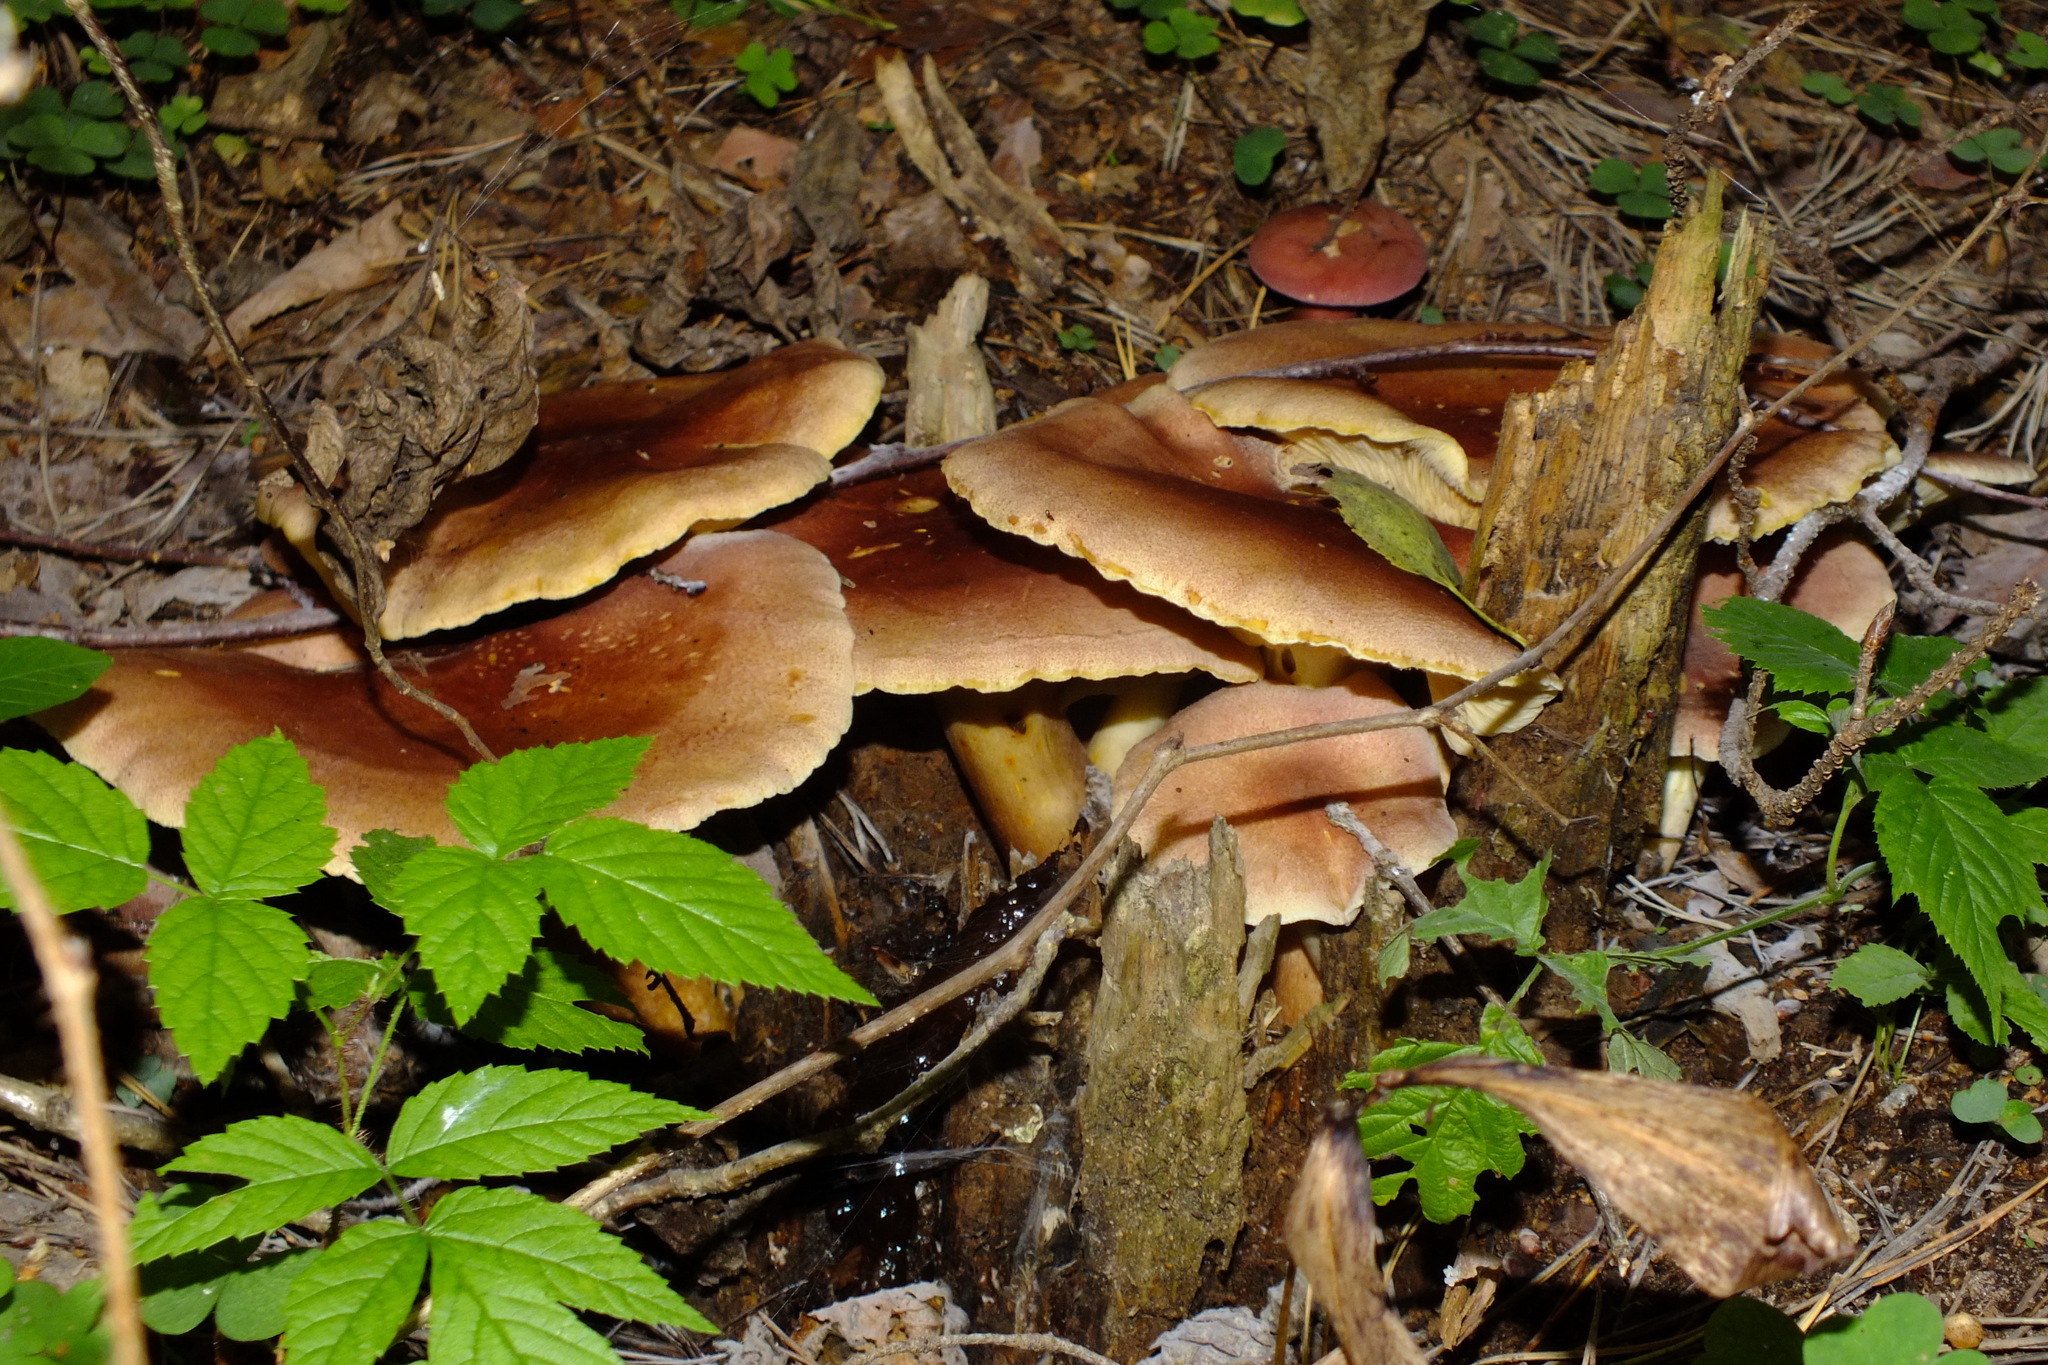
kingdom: Fungi
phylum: Basidiomycota
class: Agaricomycetes
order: Agaricales
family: Tricholomataceae
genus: Tricholomopsis
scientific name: Tricholomopsis rutilans
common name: Plums and custard
